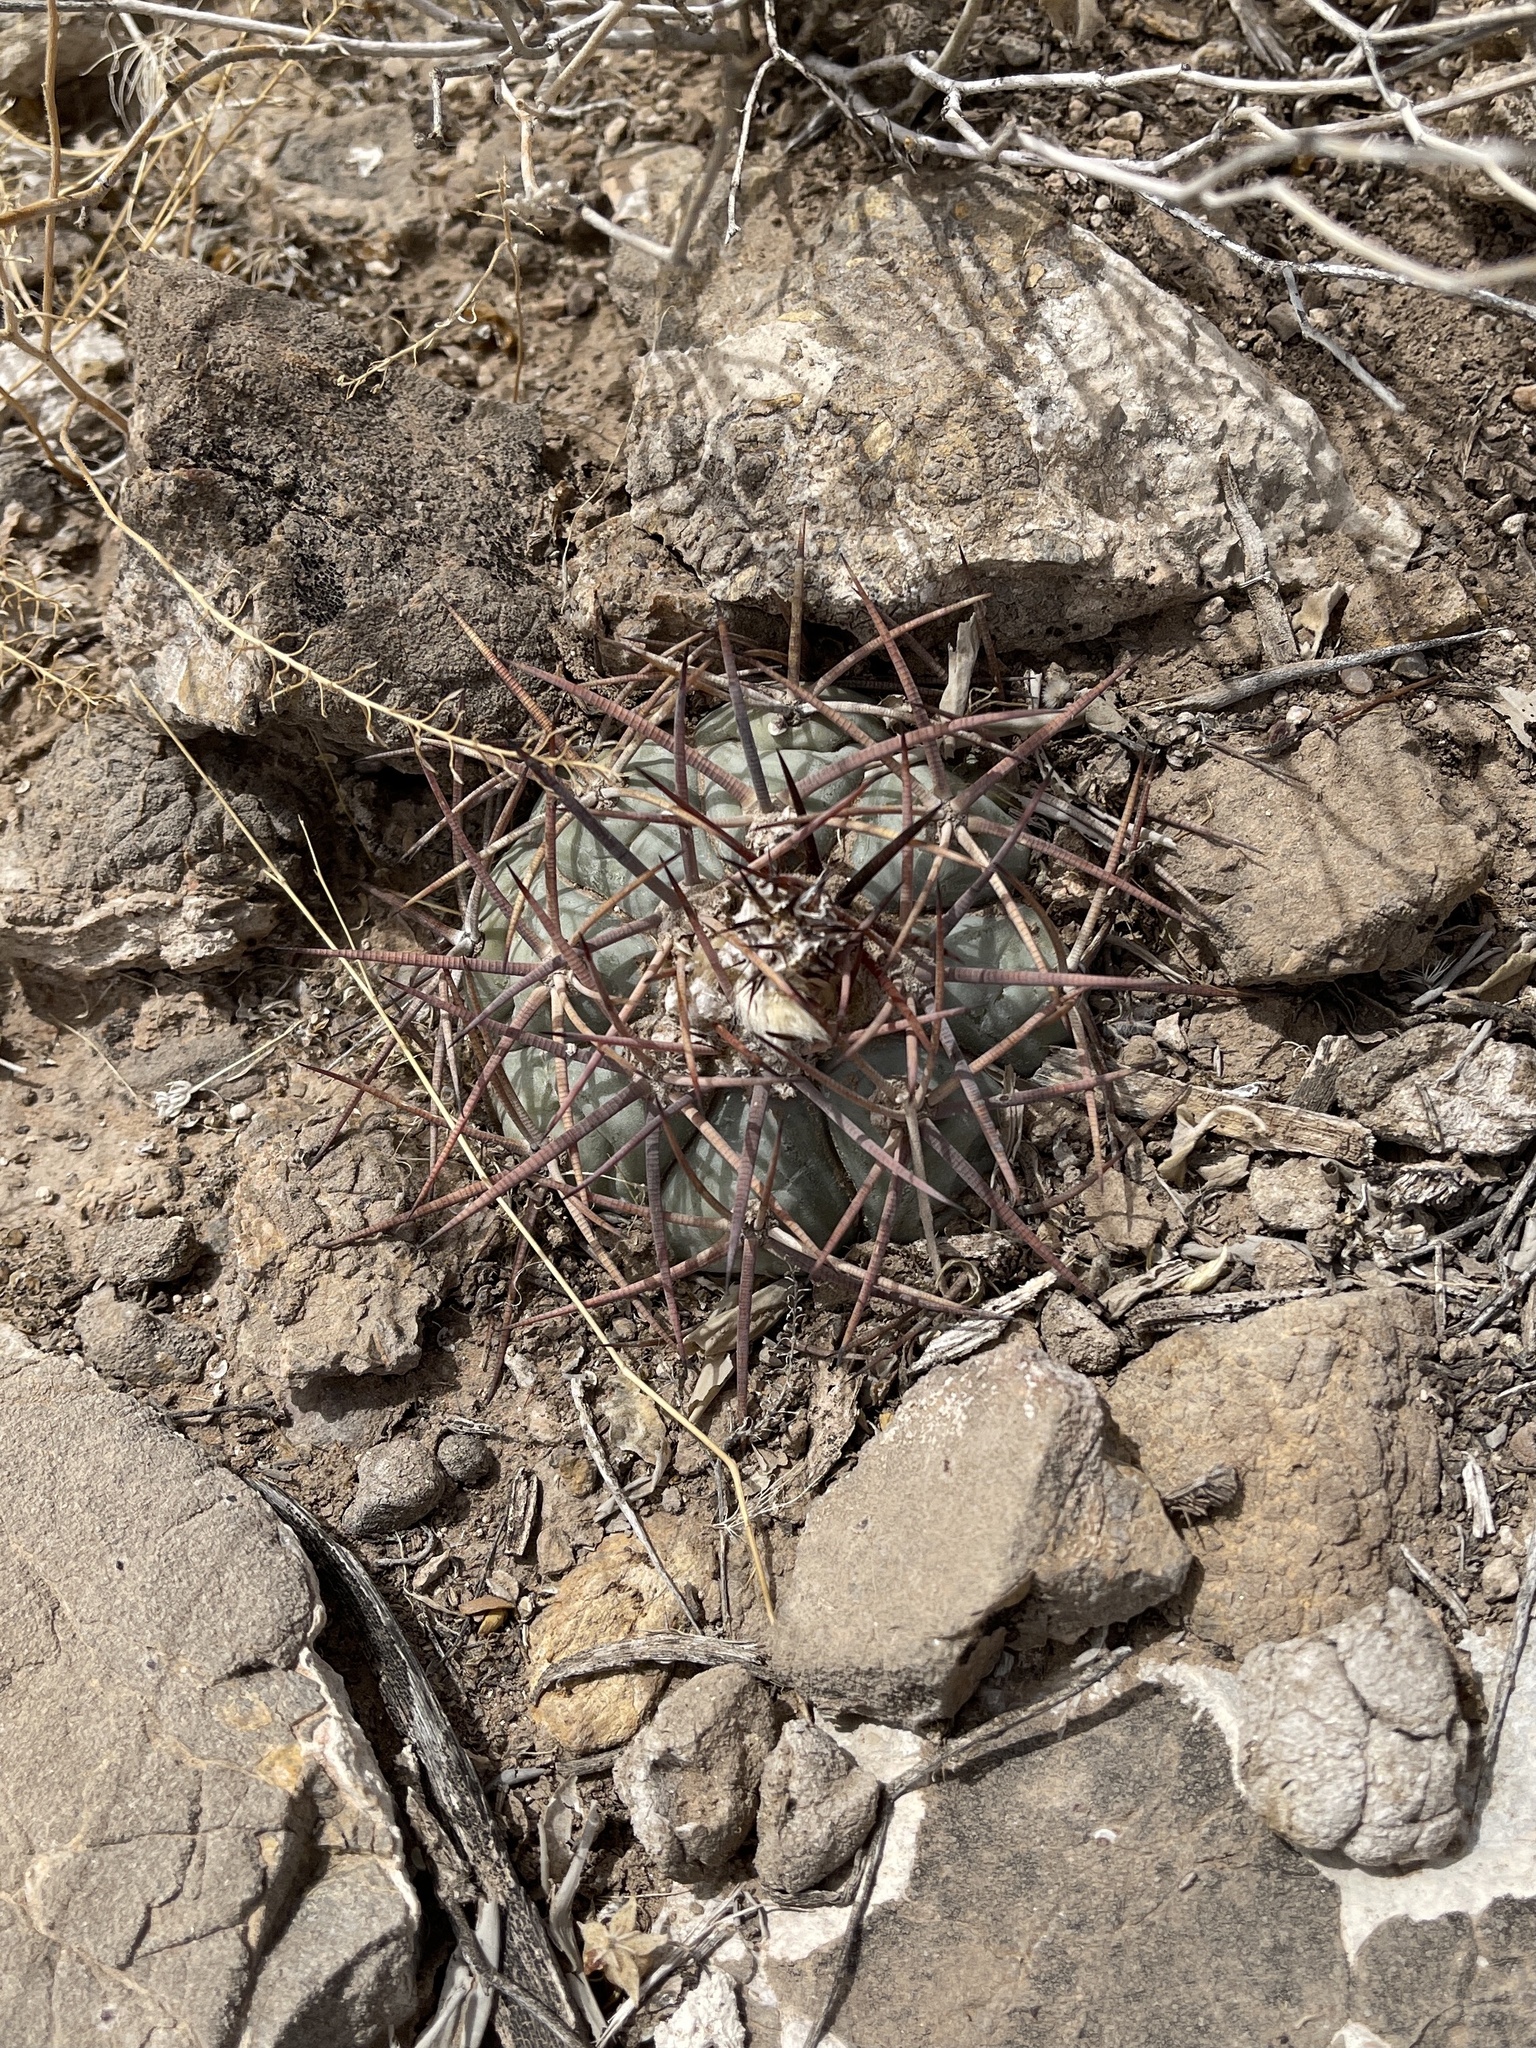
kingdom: Plantae
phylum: Tracheophyta
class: Magnoliopsida
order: Caryophyllales
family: Cactaceae
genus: Echinocactus
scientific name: Echinocactus horizonthalonius
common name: Devilshead
